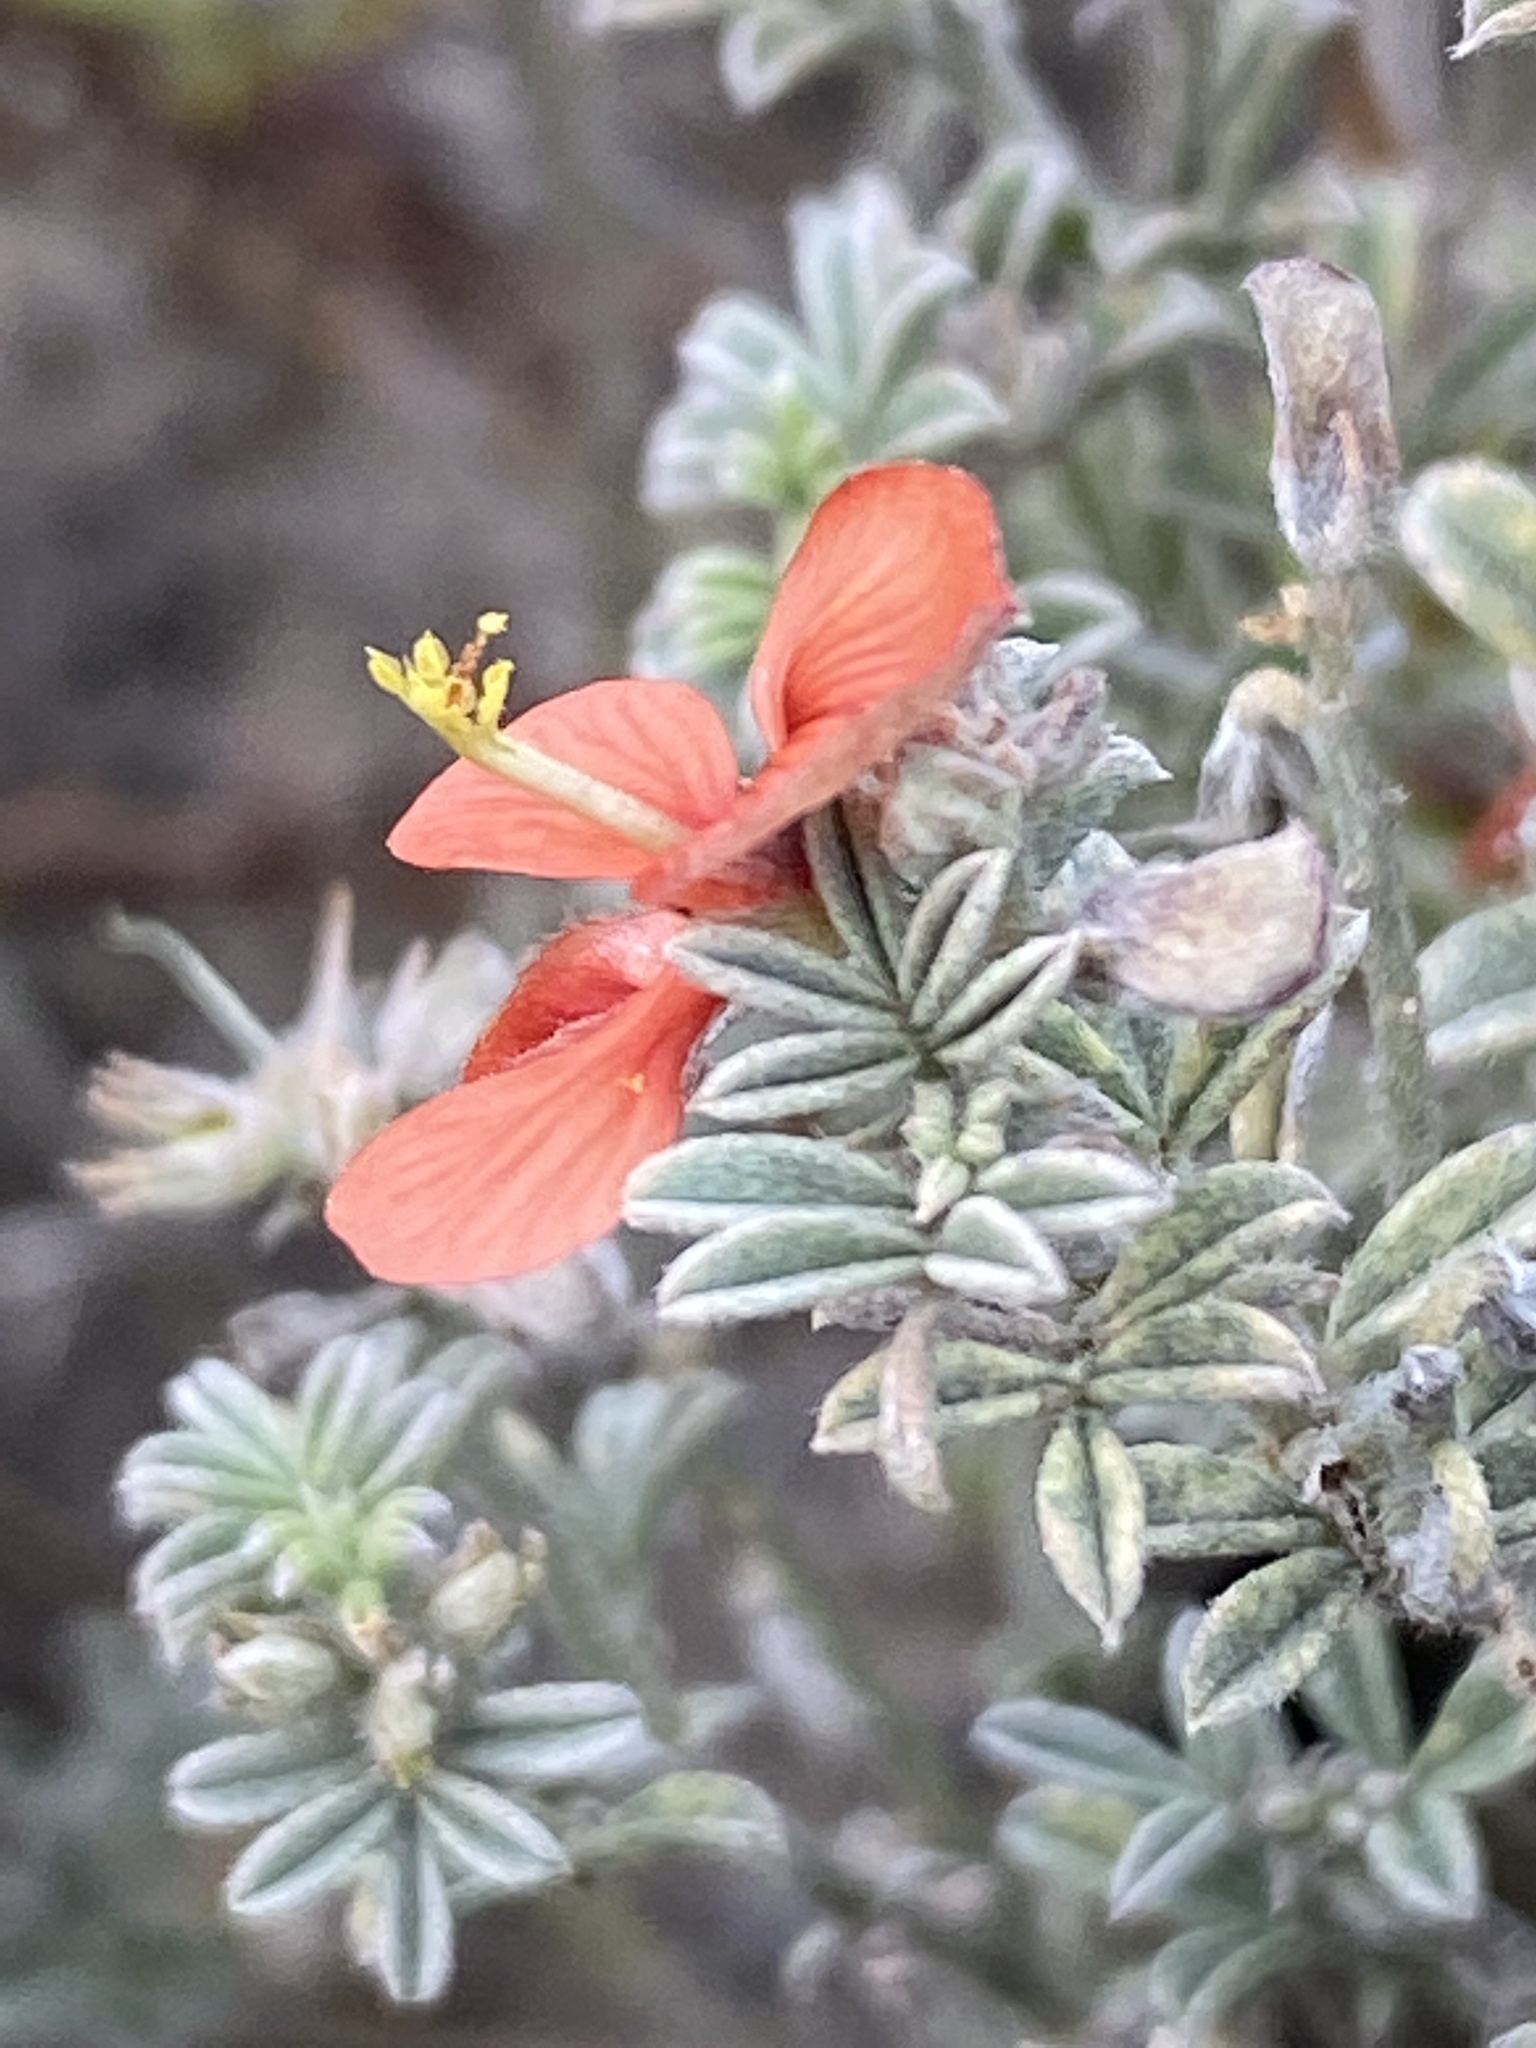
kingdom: Plantae
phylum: Tracheophyta
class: Magnoliopsida
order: Fabales
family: Fabaceae
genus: Indigofera
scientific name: Indigofera priorii
